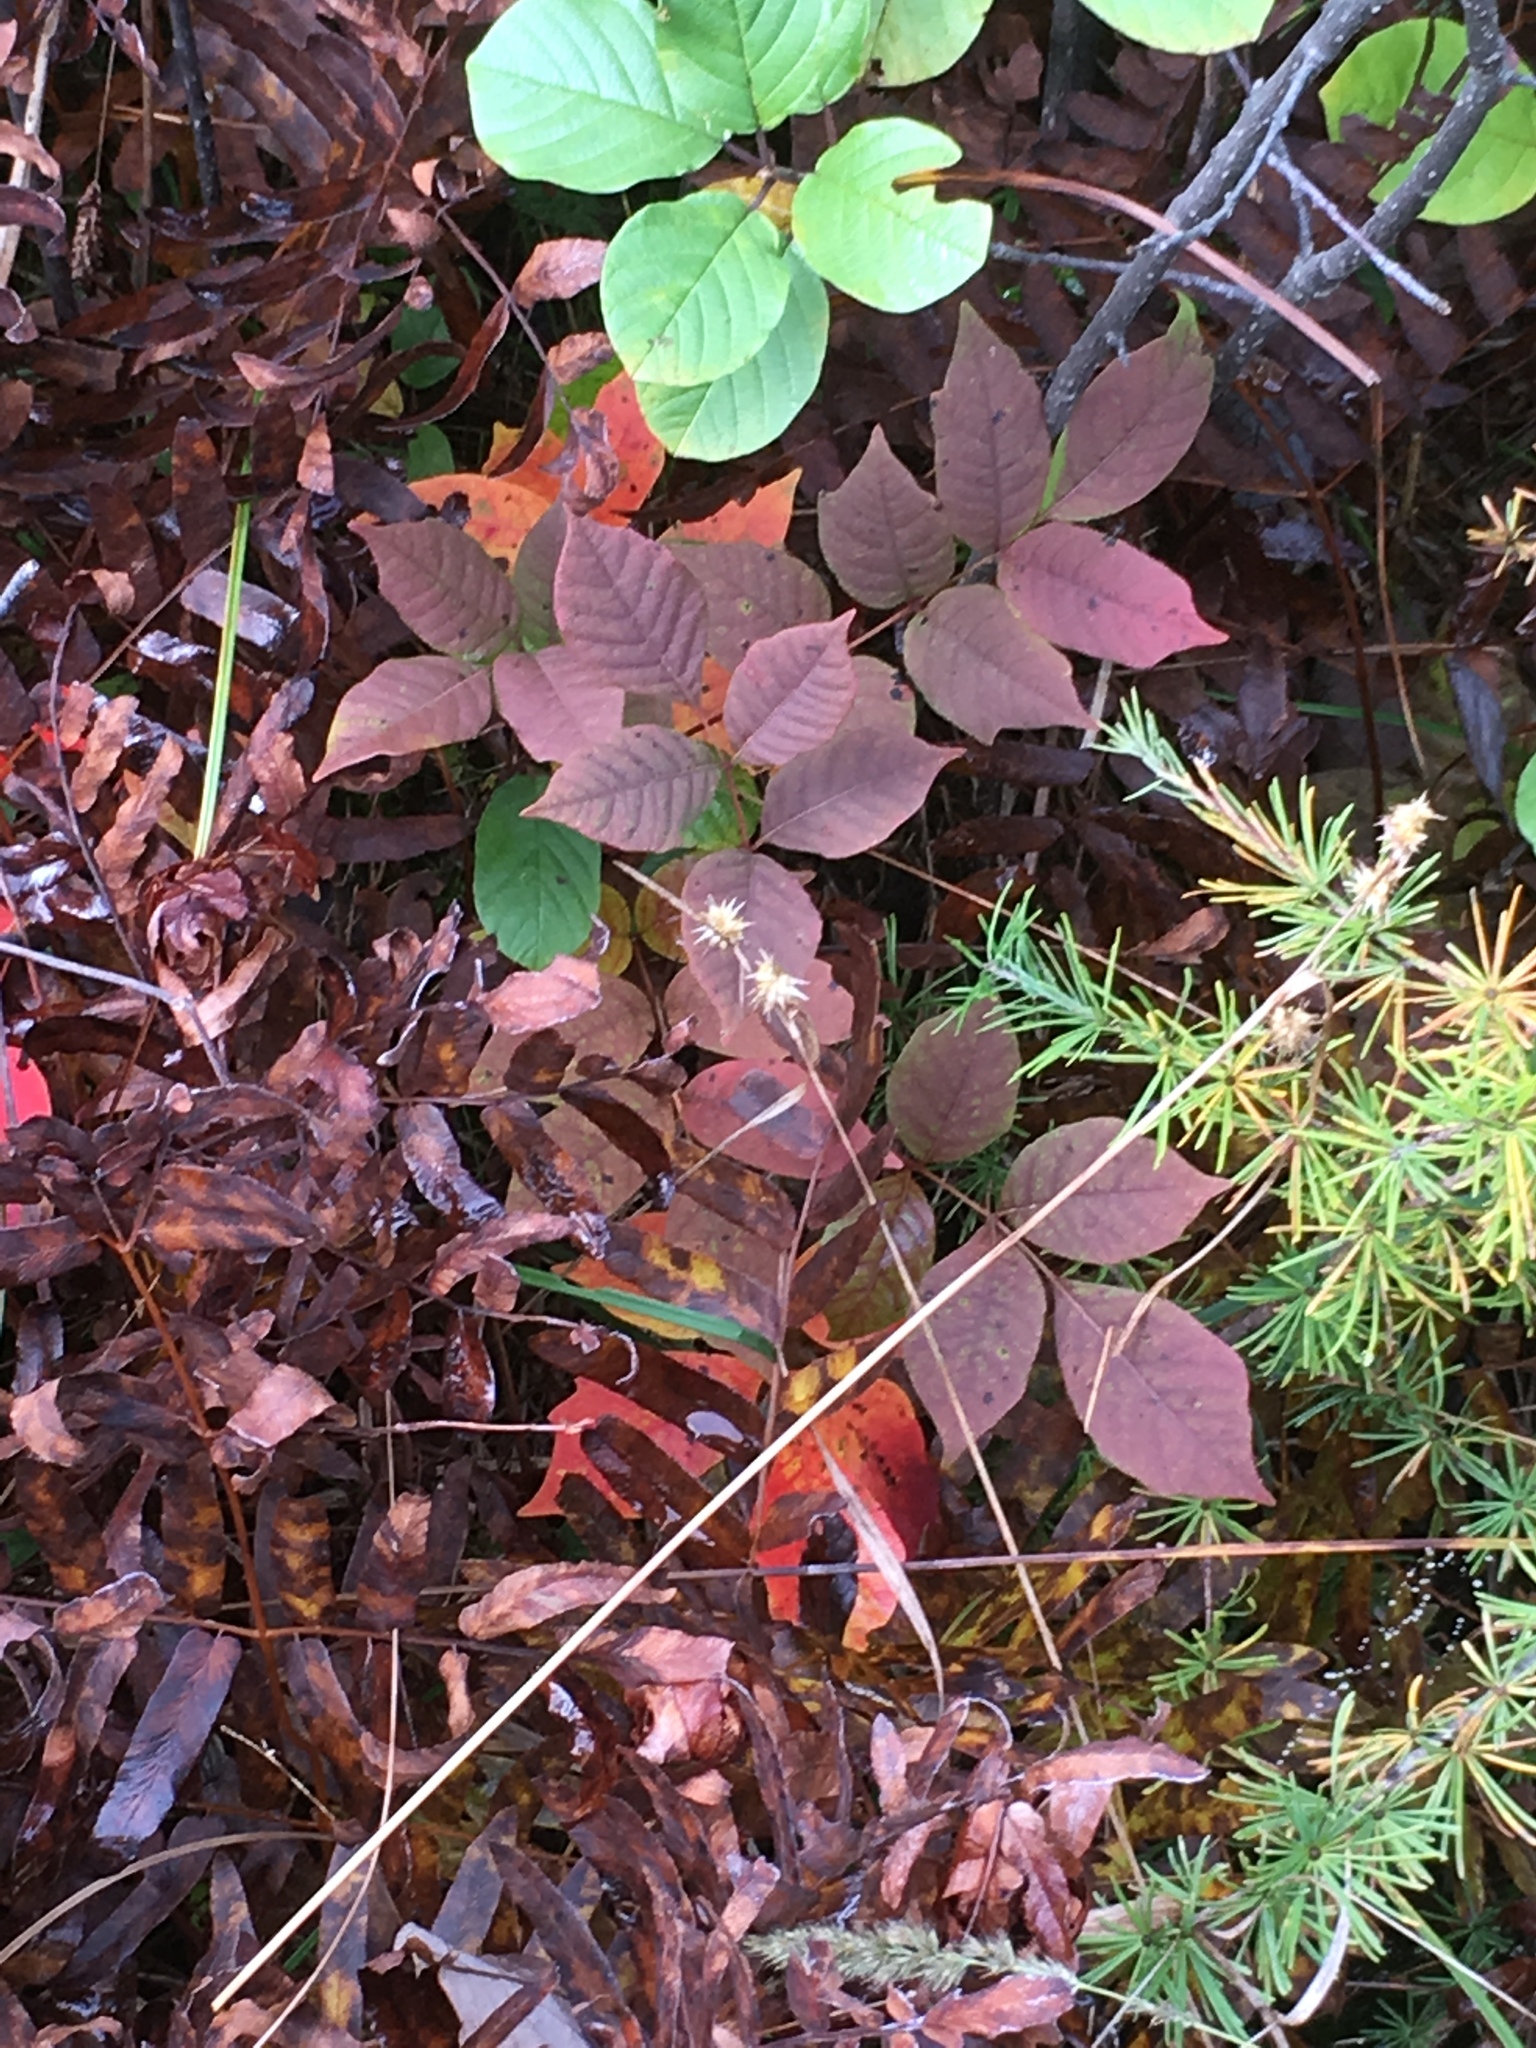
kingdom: Plantae
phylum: Tracheophyta
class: Magnoliopsida
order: Sapindales
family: Anacardiaceae
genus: Toxicodendron
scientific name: Toxicodendron vernix
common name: Poison sumac
